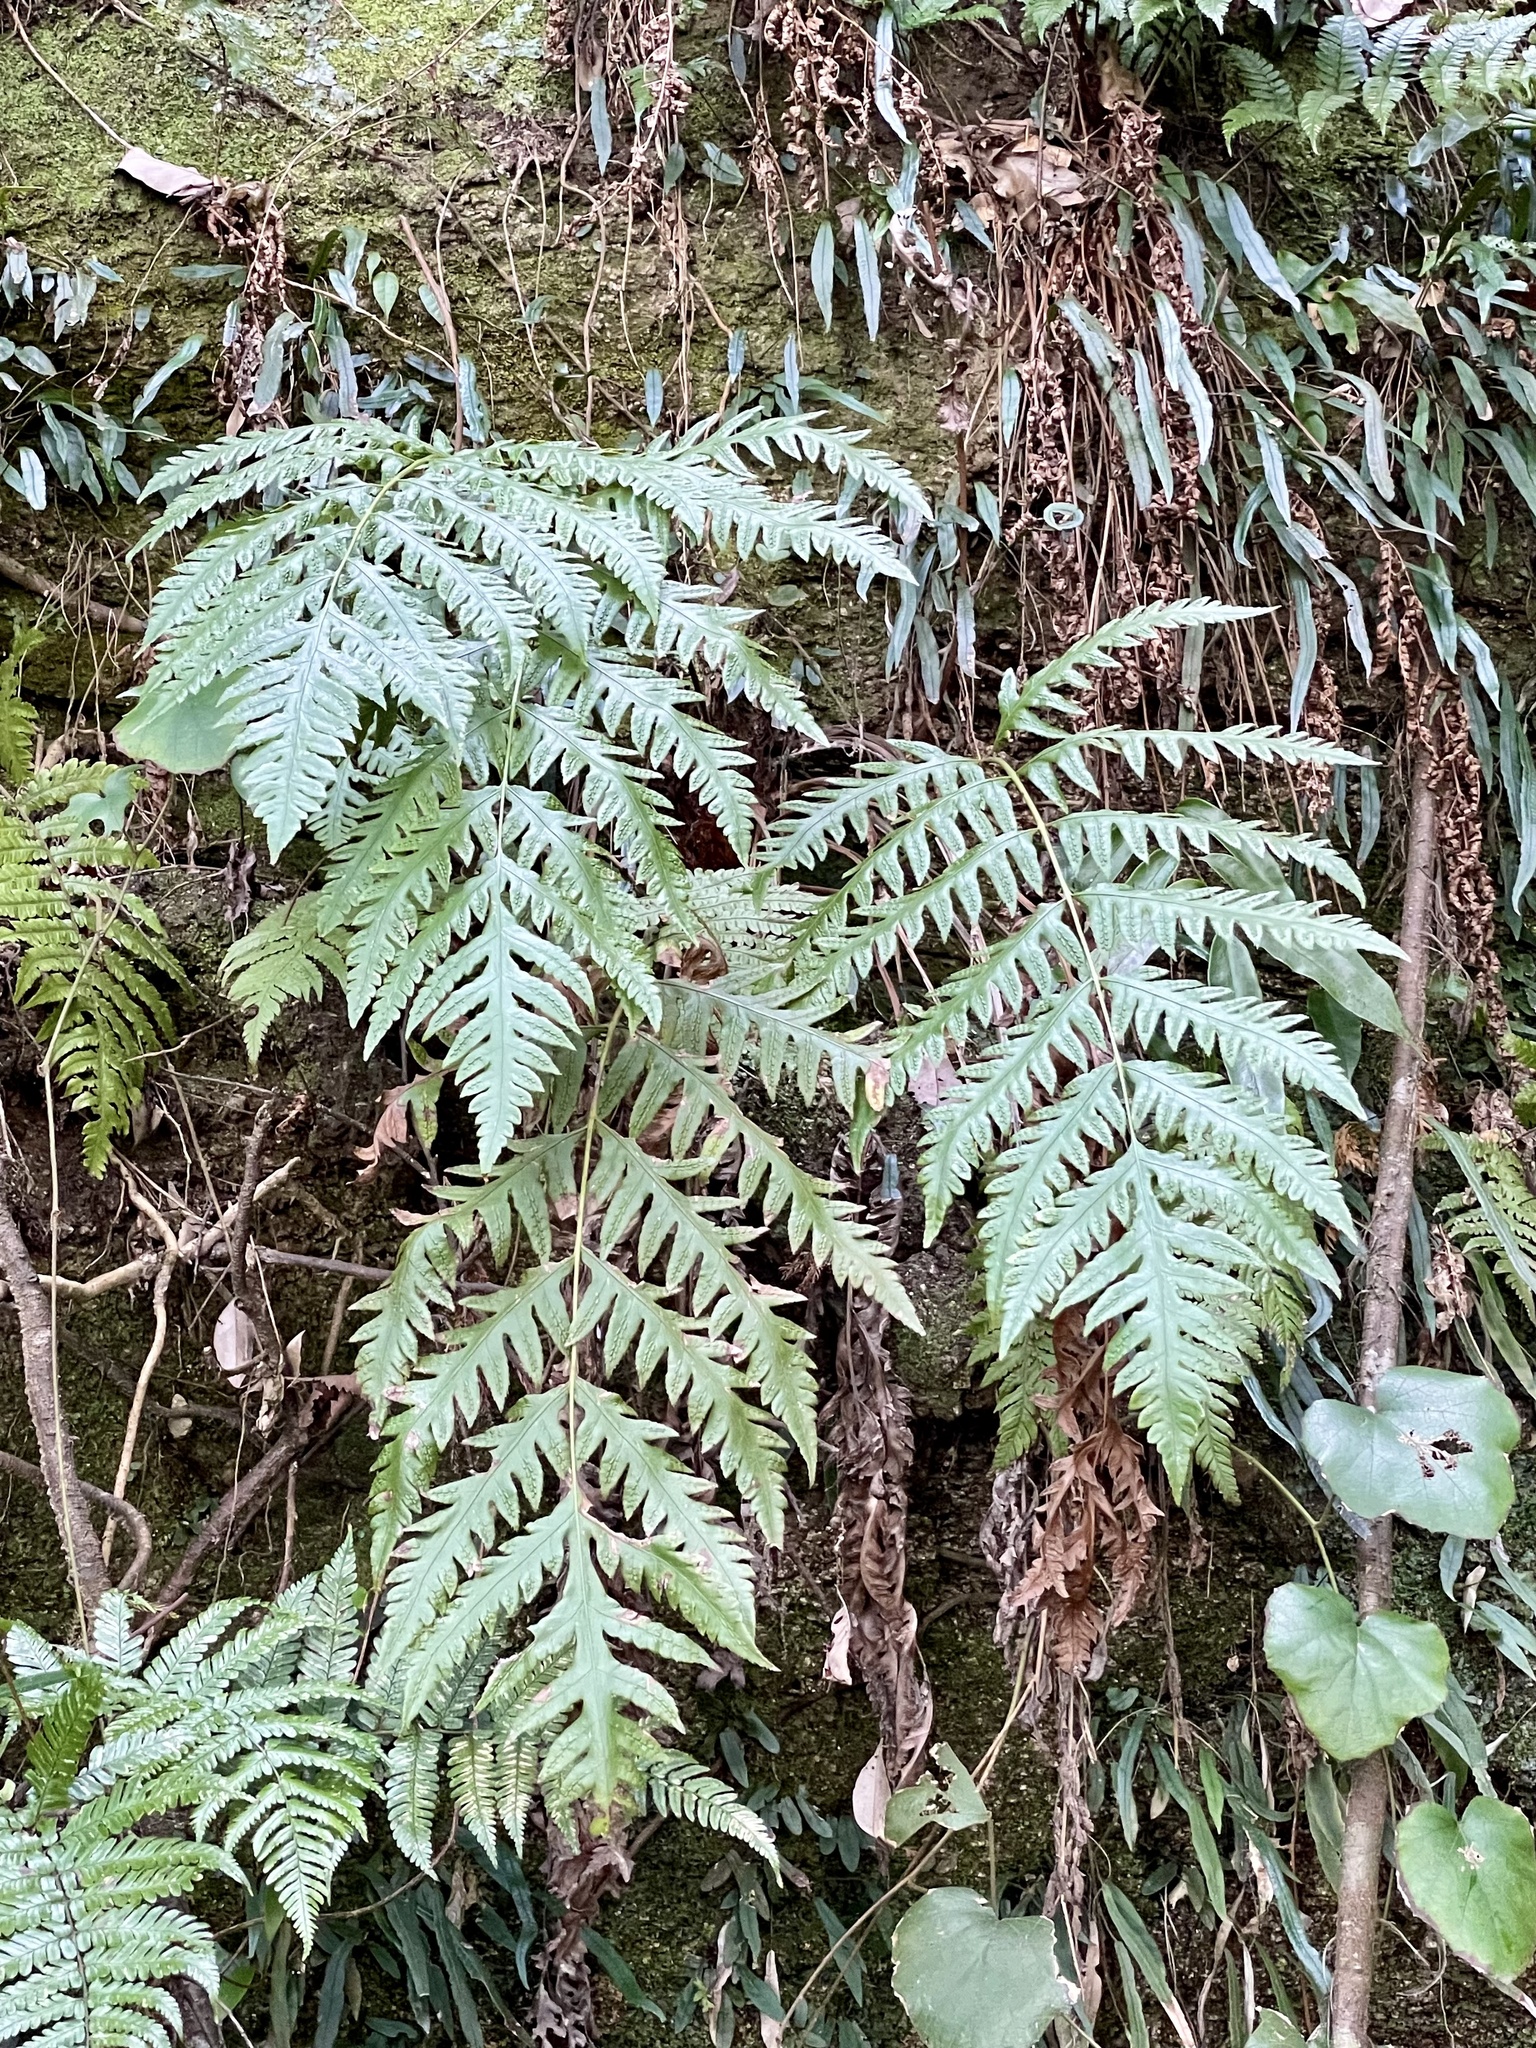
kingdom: Plantae
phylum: Tracheophyta
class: Polypodiopsida
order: Polypodiales
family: Blechnaceae
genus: Woodwardia
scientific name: Woodwardia orientalis
